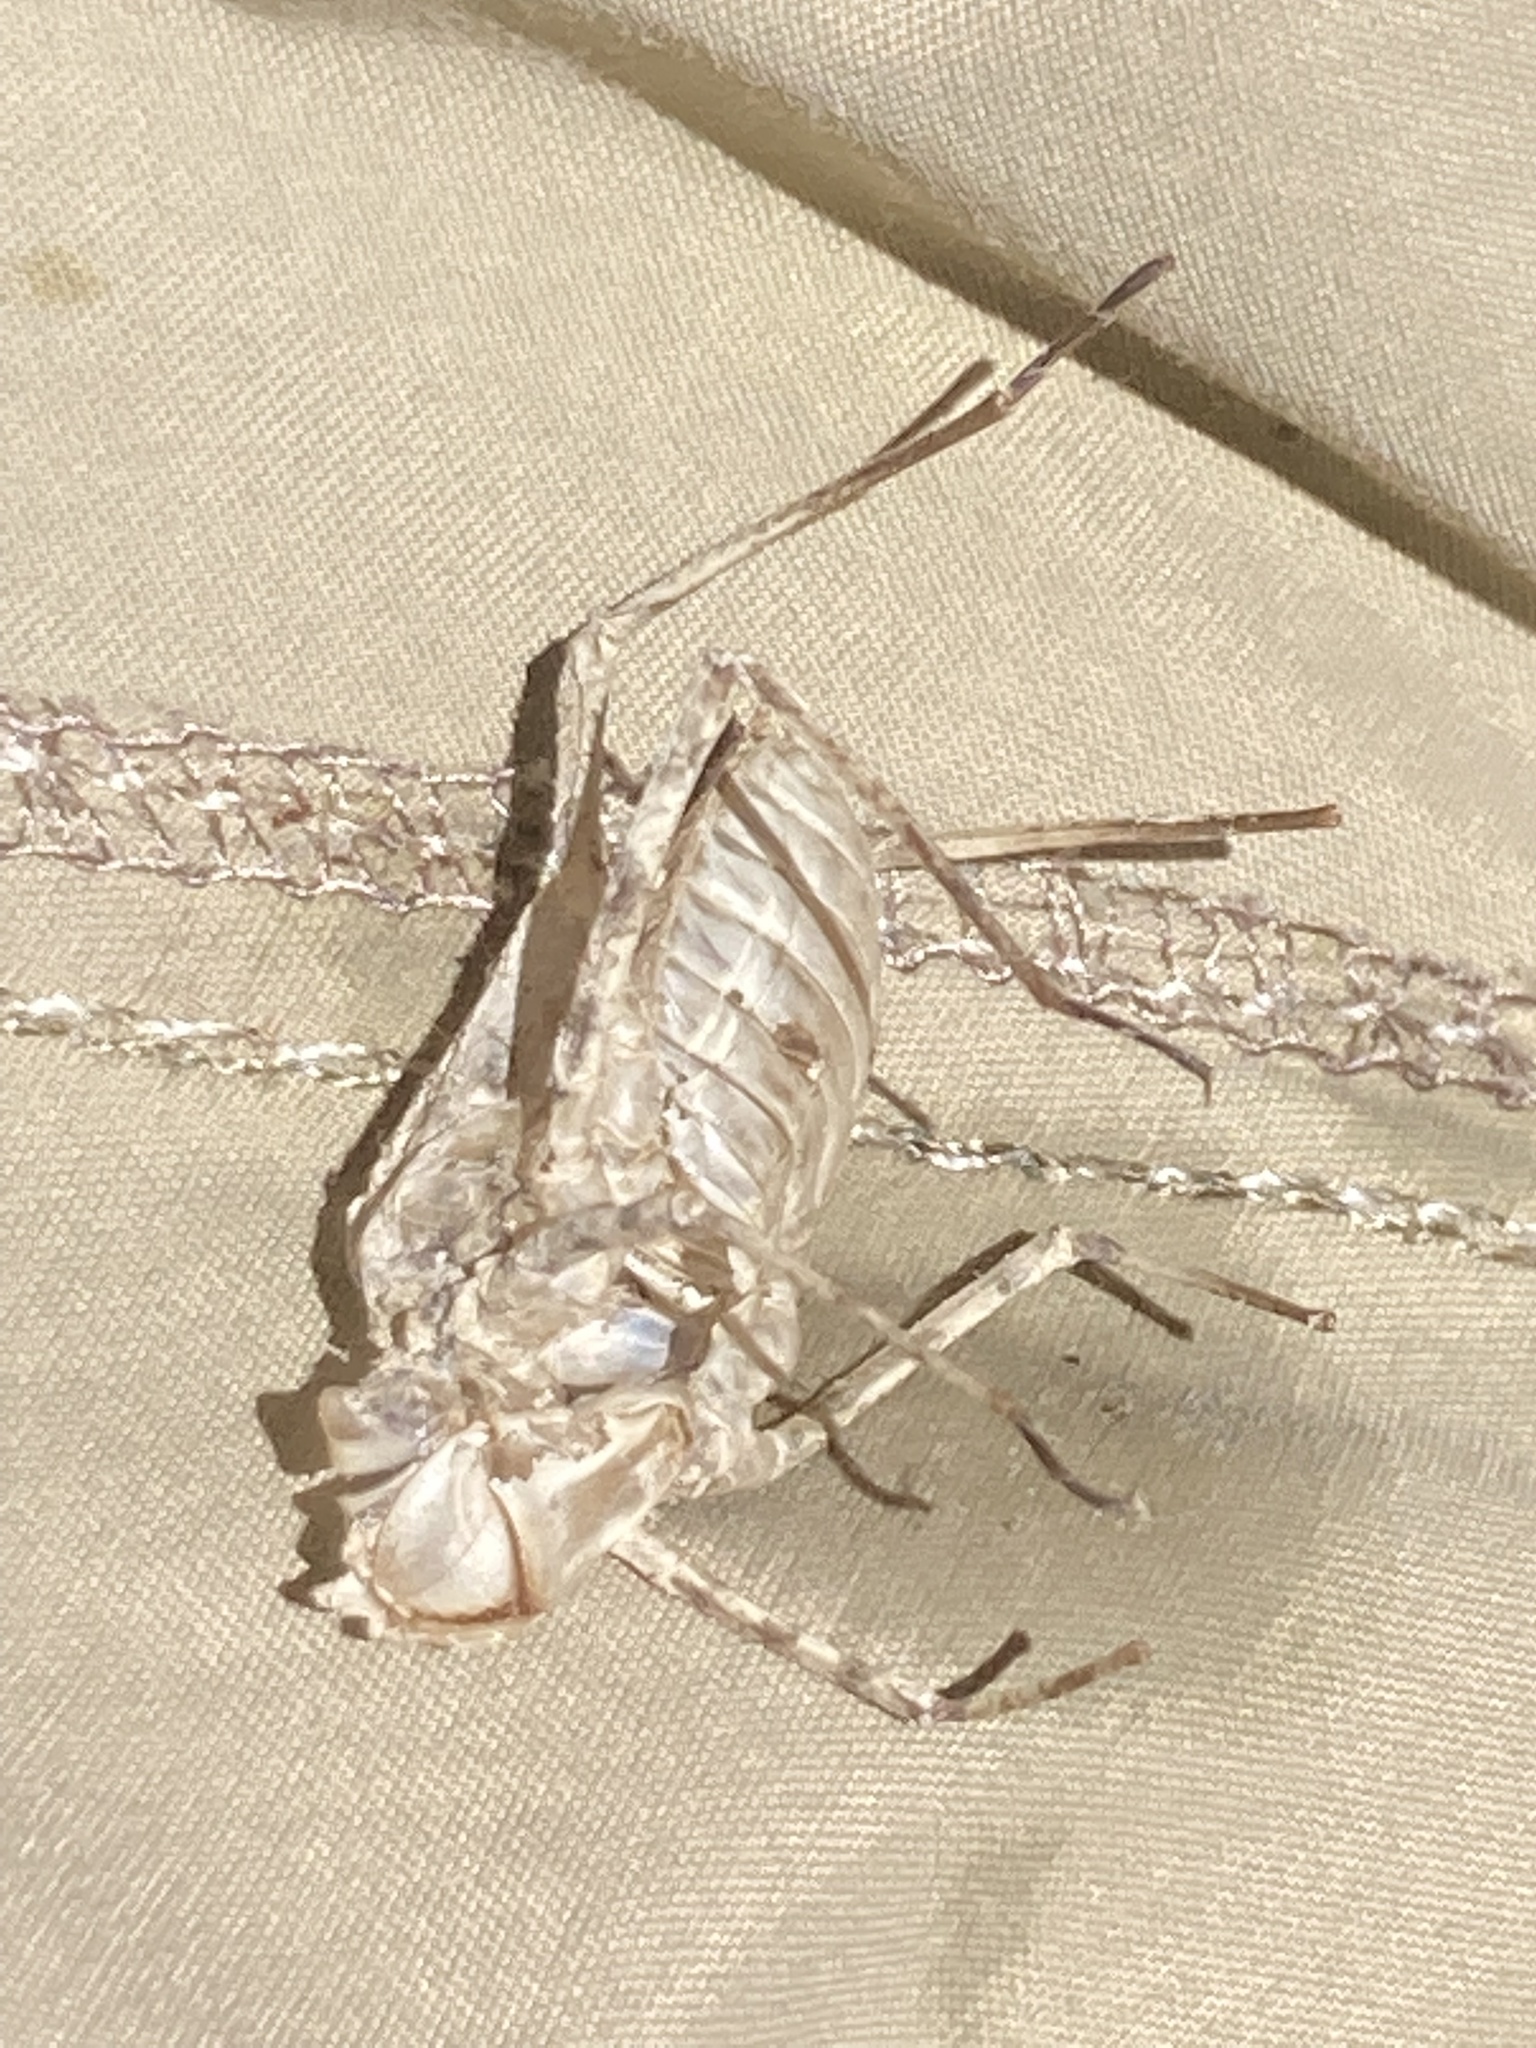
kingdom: Animalia
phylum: Arthropoda
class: Insecta
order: Odonata
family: Corduliidae
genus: Oxygastra
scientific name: Oxygastra curtisii
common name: Orange-spotted emerald
